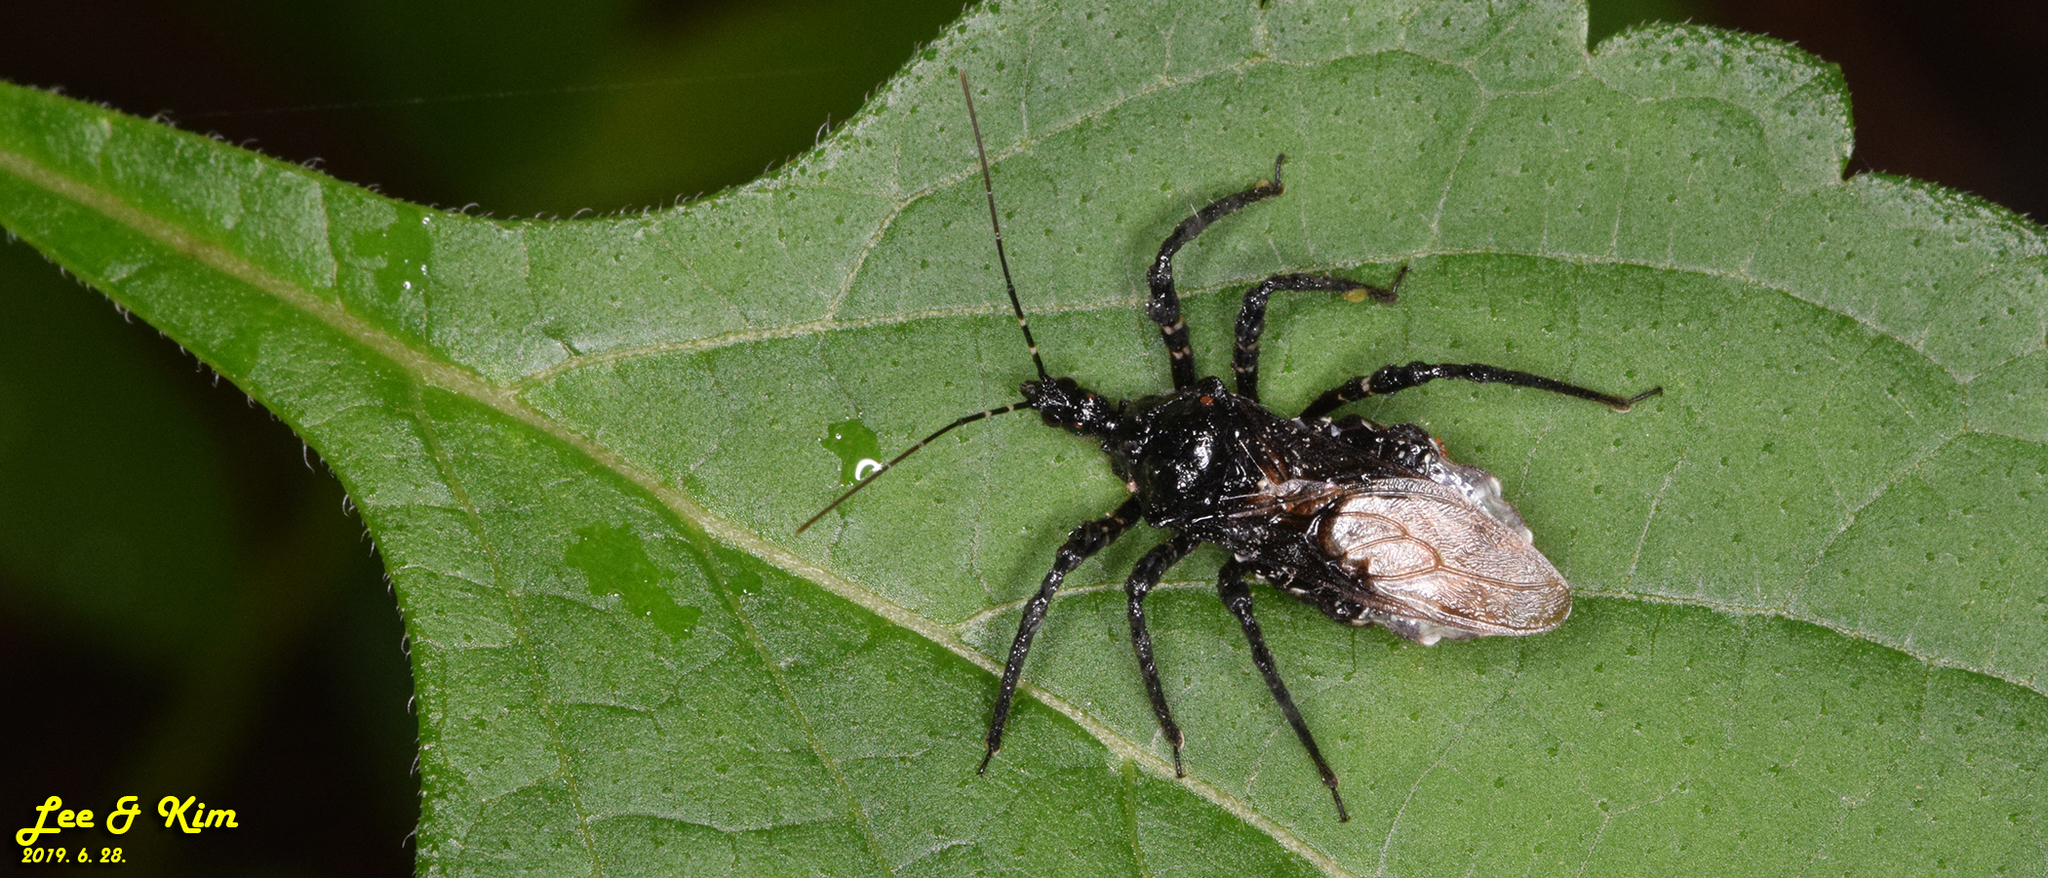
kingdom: Animalia
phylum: Arthropoda
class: Insecta
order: Hemiptera
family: Reduviidae
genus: Velinus
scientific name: Velinus nodipes
